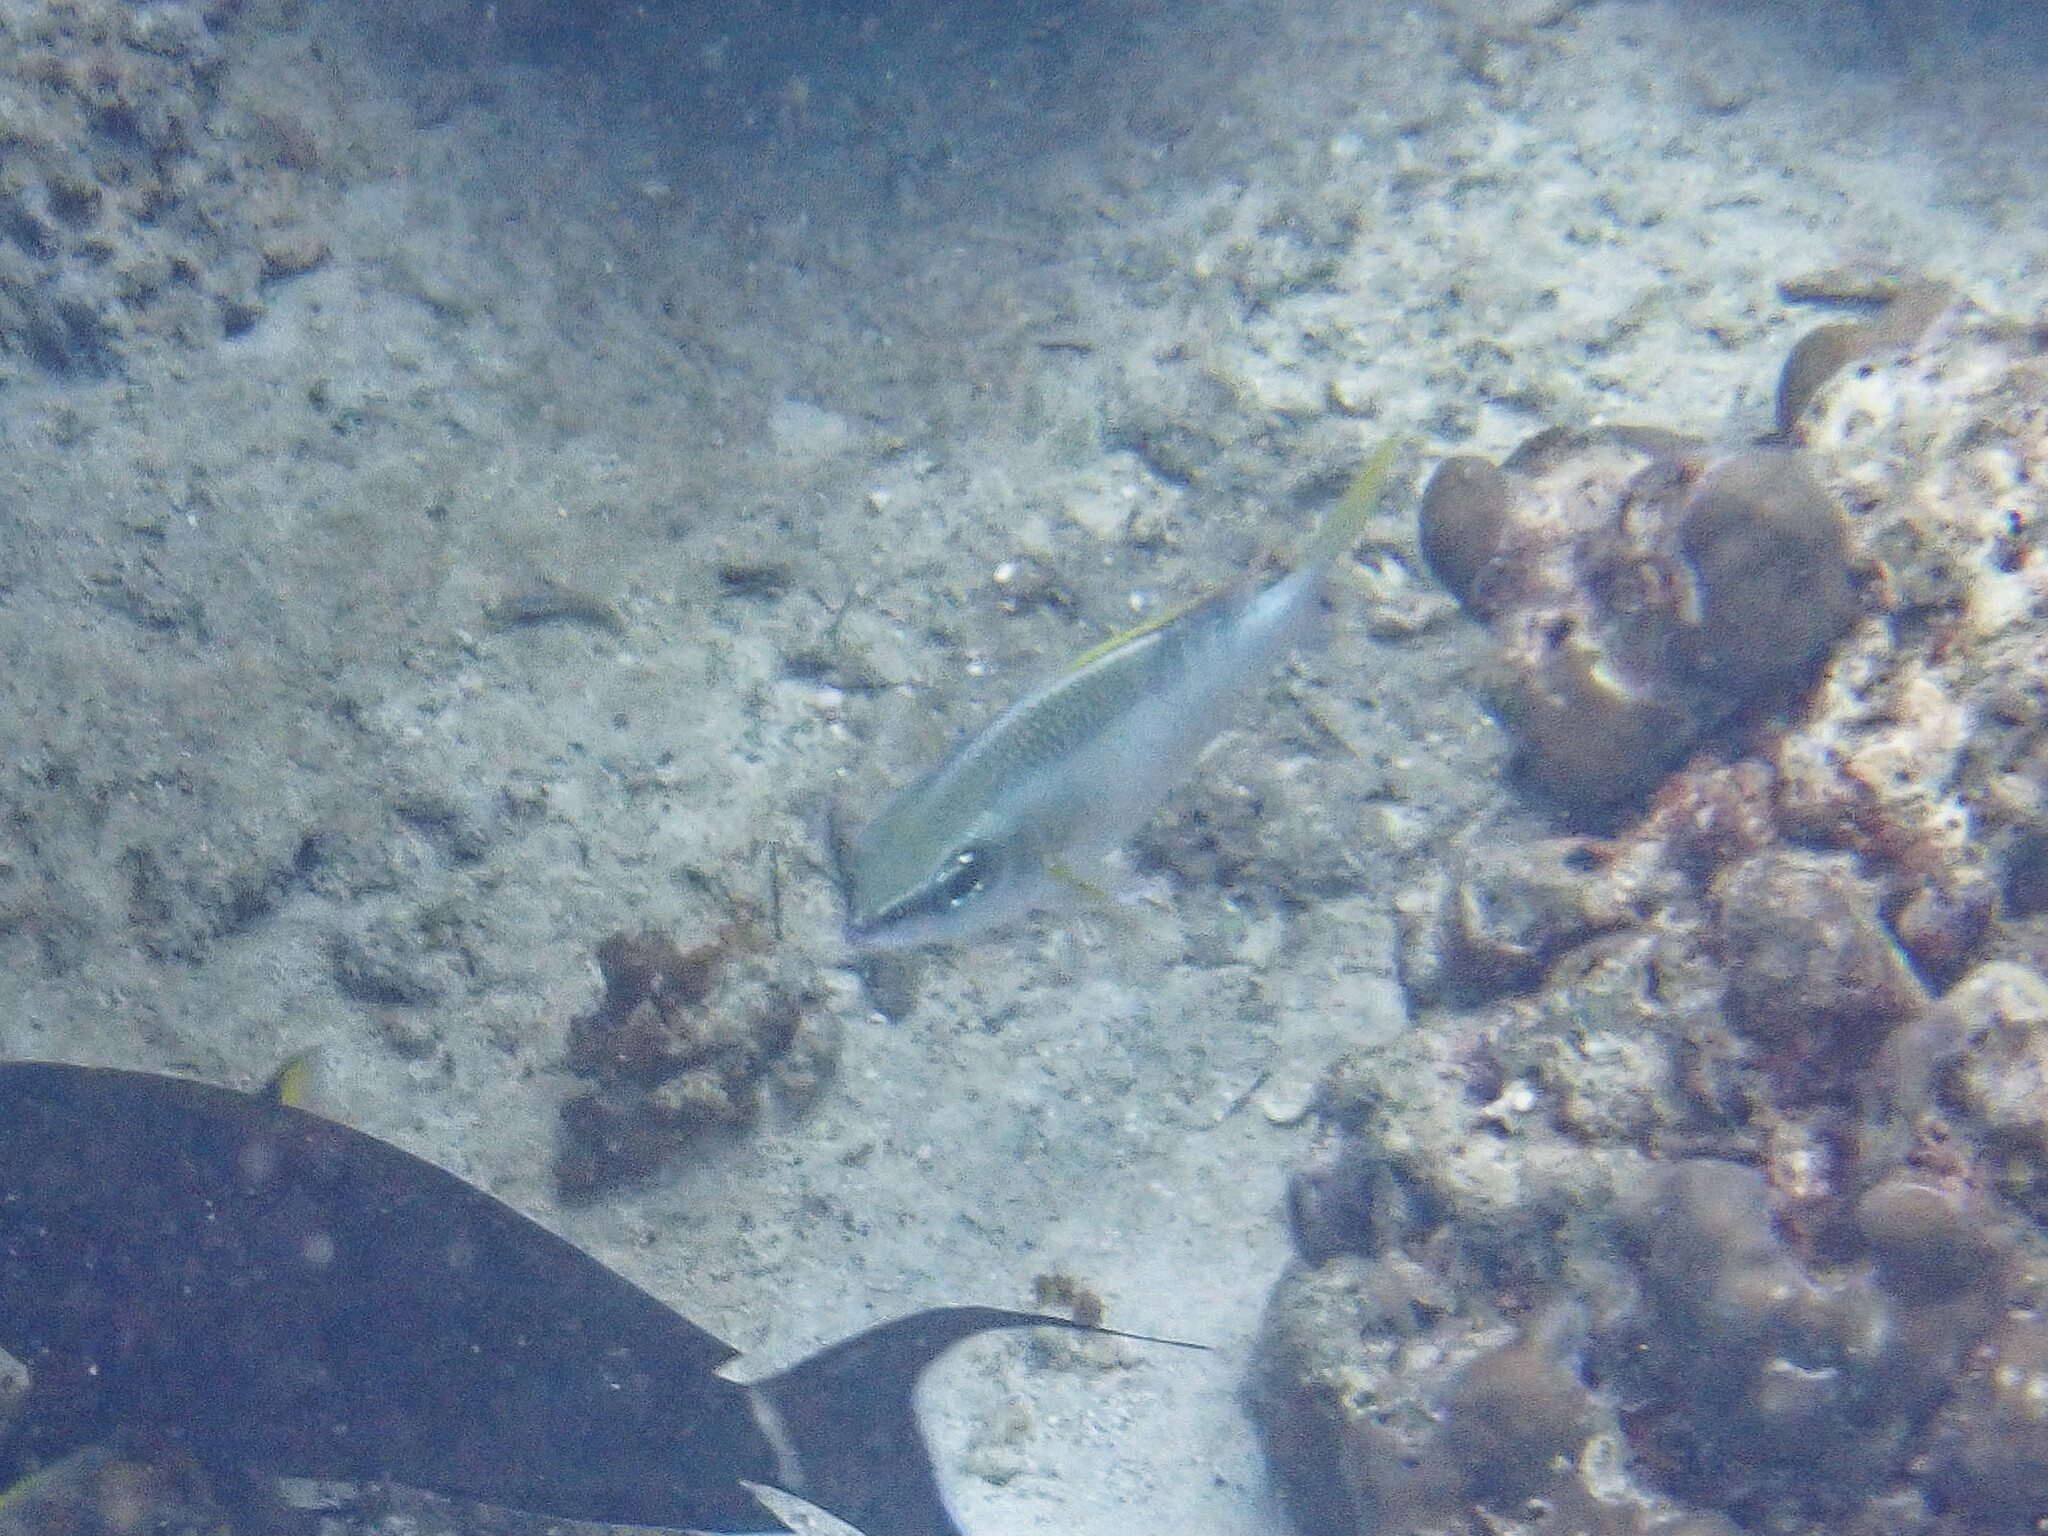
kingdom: Animalia
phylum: Chordata
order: Perciformes
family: Nemipteridae
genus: Scolopsis
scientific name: Scolopsis margaritifera
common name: Pearly monocle bream
